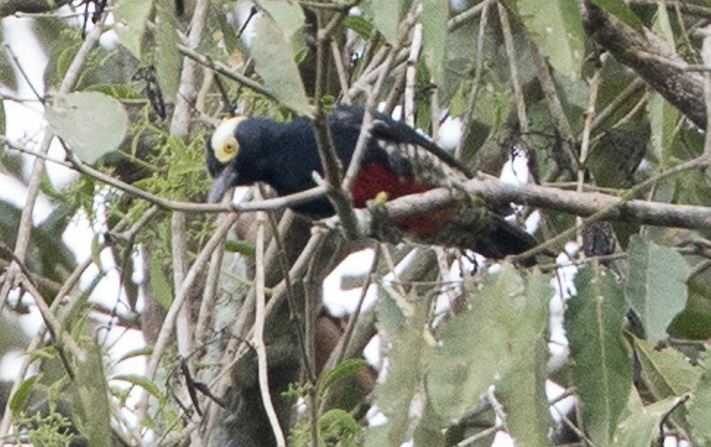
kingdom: Animalia
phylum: Chordata
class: Aves
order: Piciformes
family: Picidae
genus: Melanerpes
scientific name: Melanerpes cruentatus
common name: Yellow-tufted woodpecker
